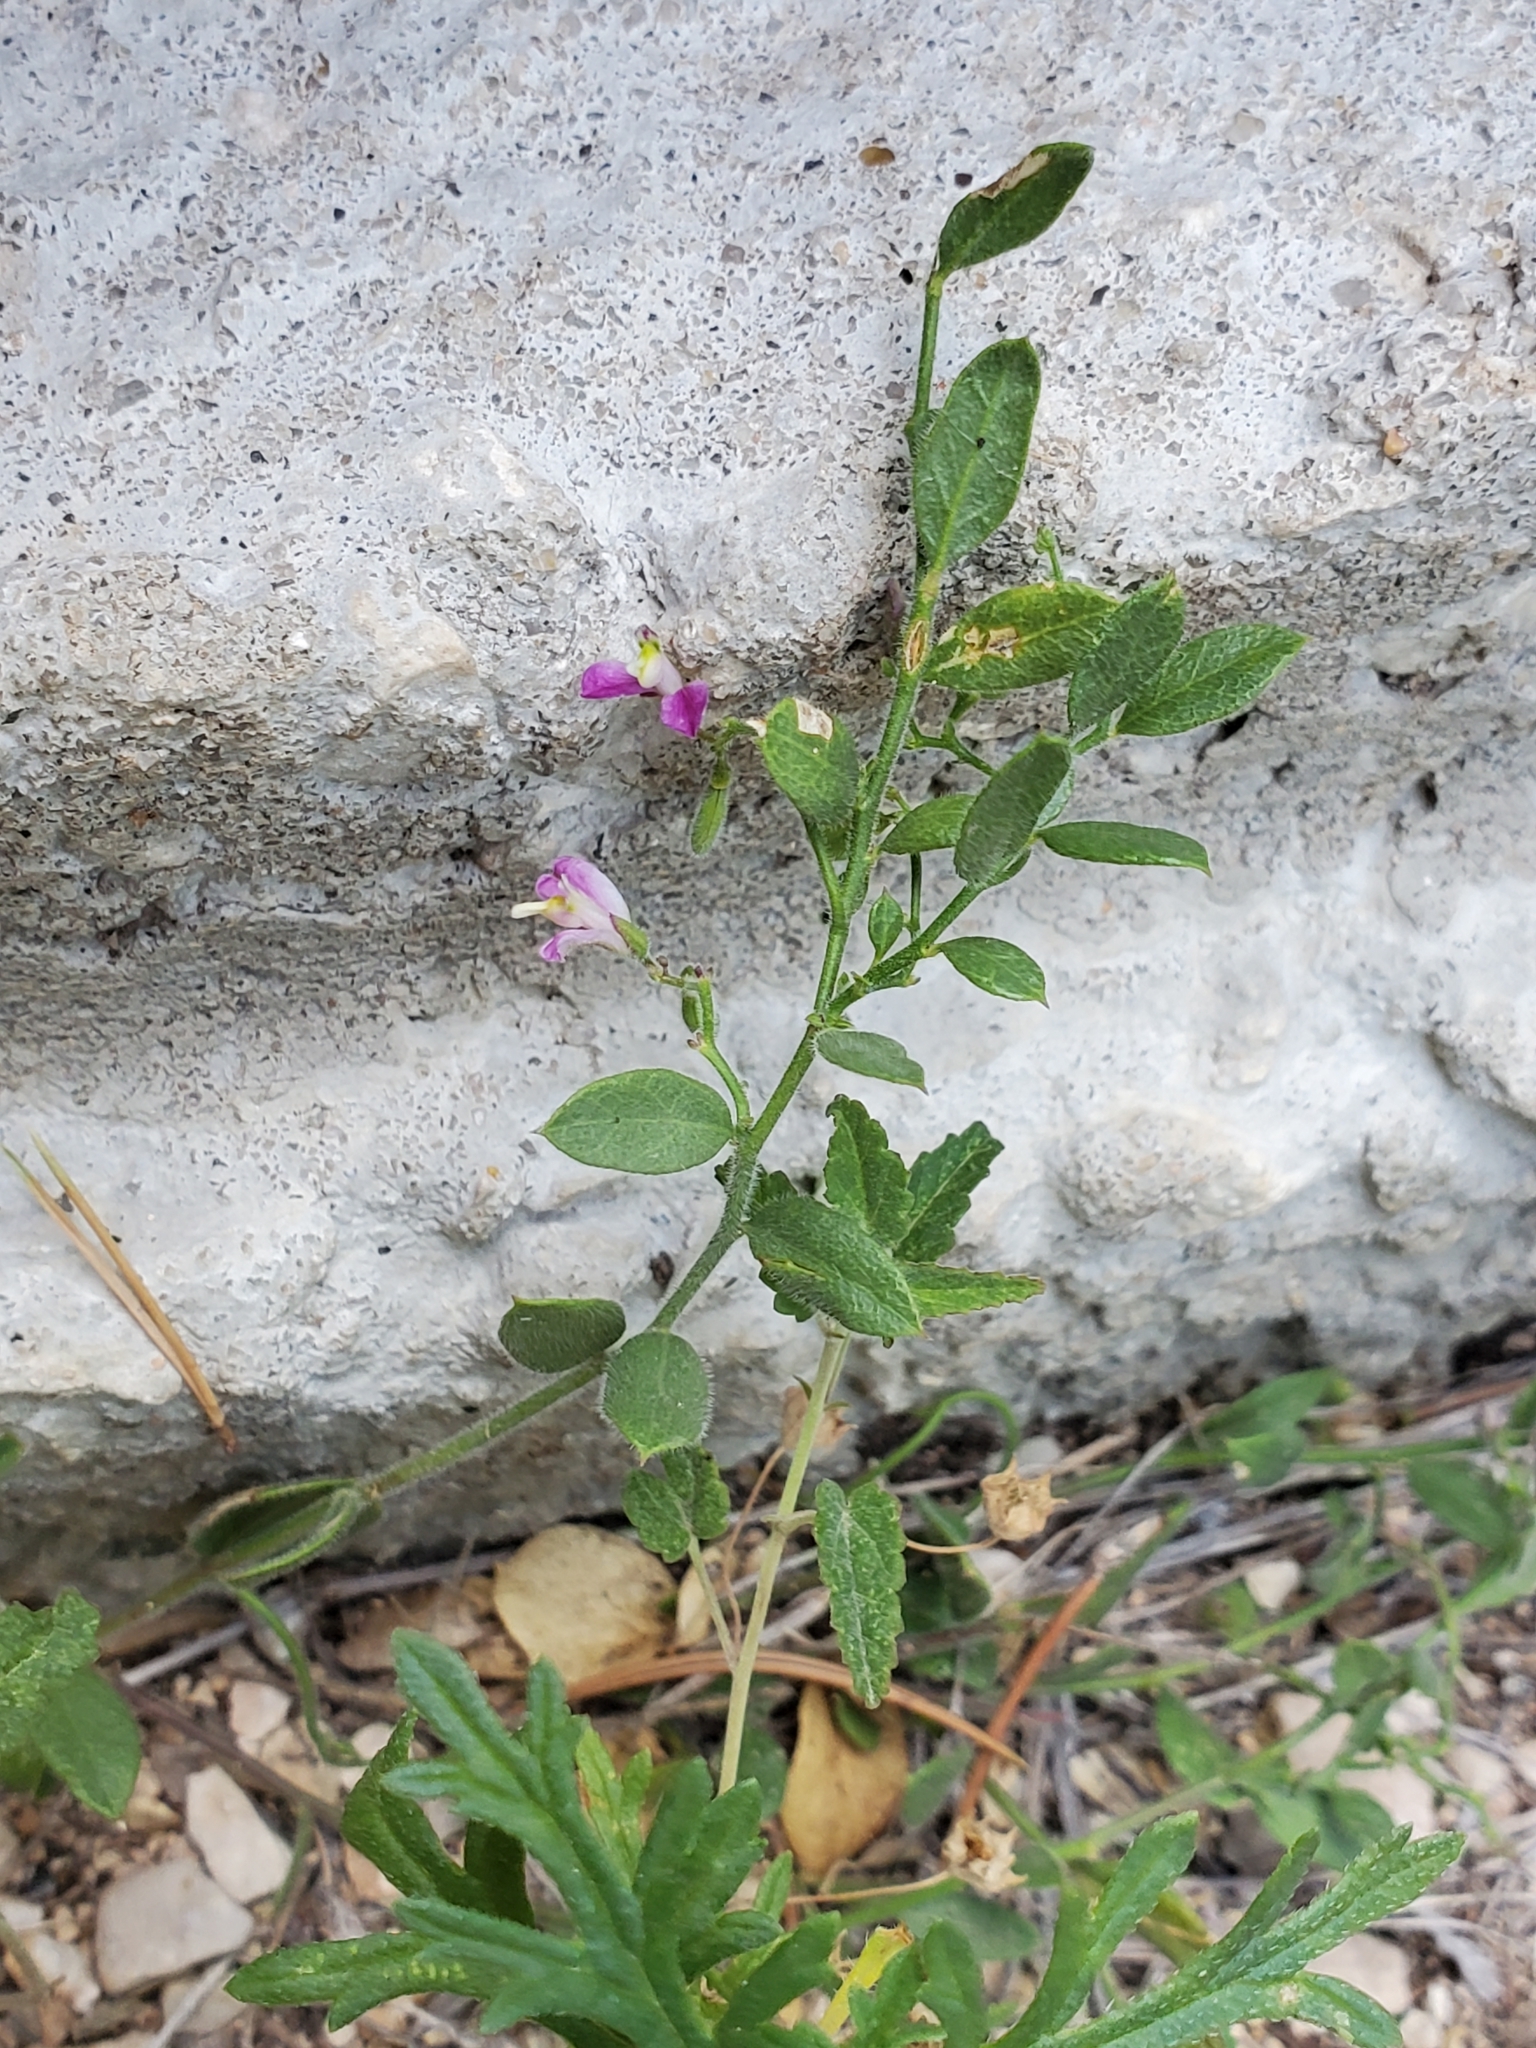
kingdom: Plantae
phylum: Tracheophyta
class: Magnoliopsida
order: Fabales
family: Polygalaceae
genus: Rhinotropis
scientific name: Rhinotropis lindheimeri
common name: Shrubby milkwort
